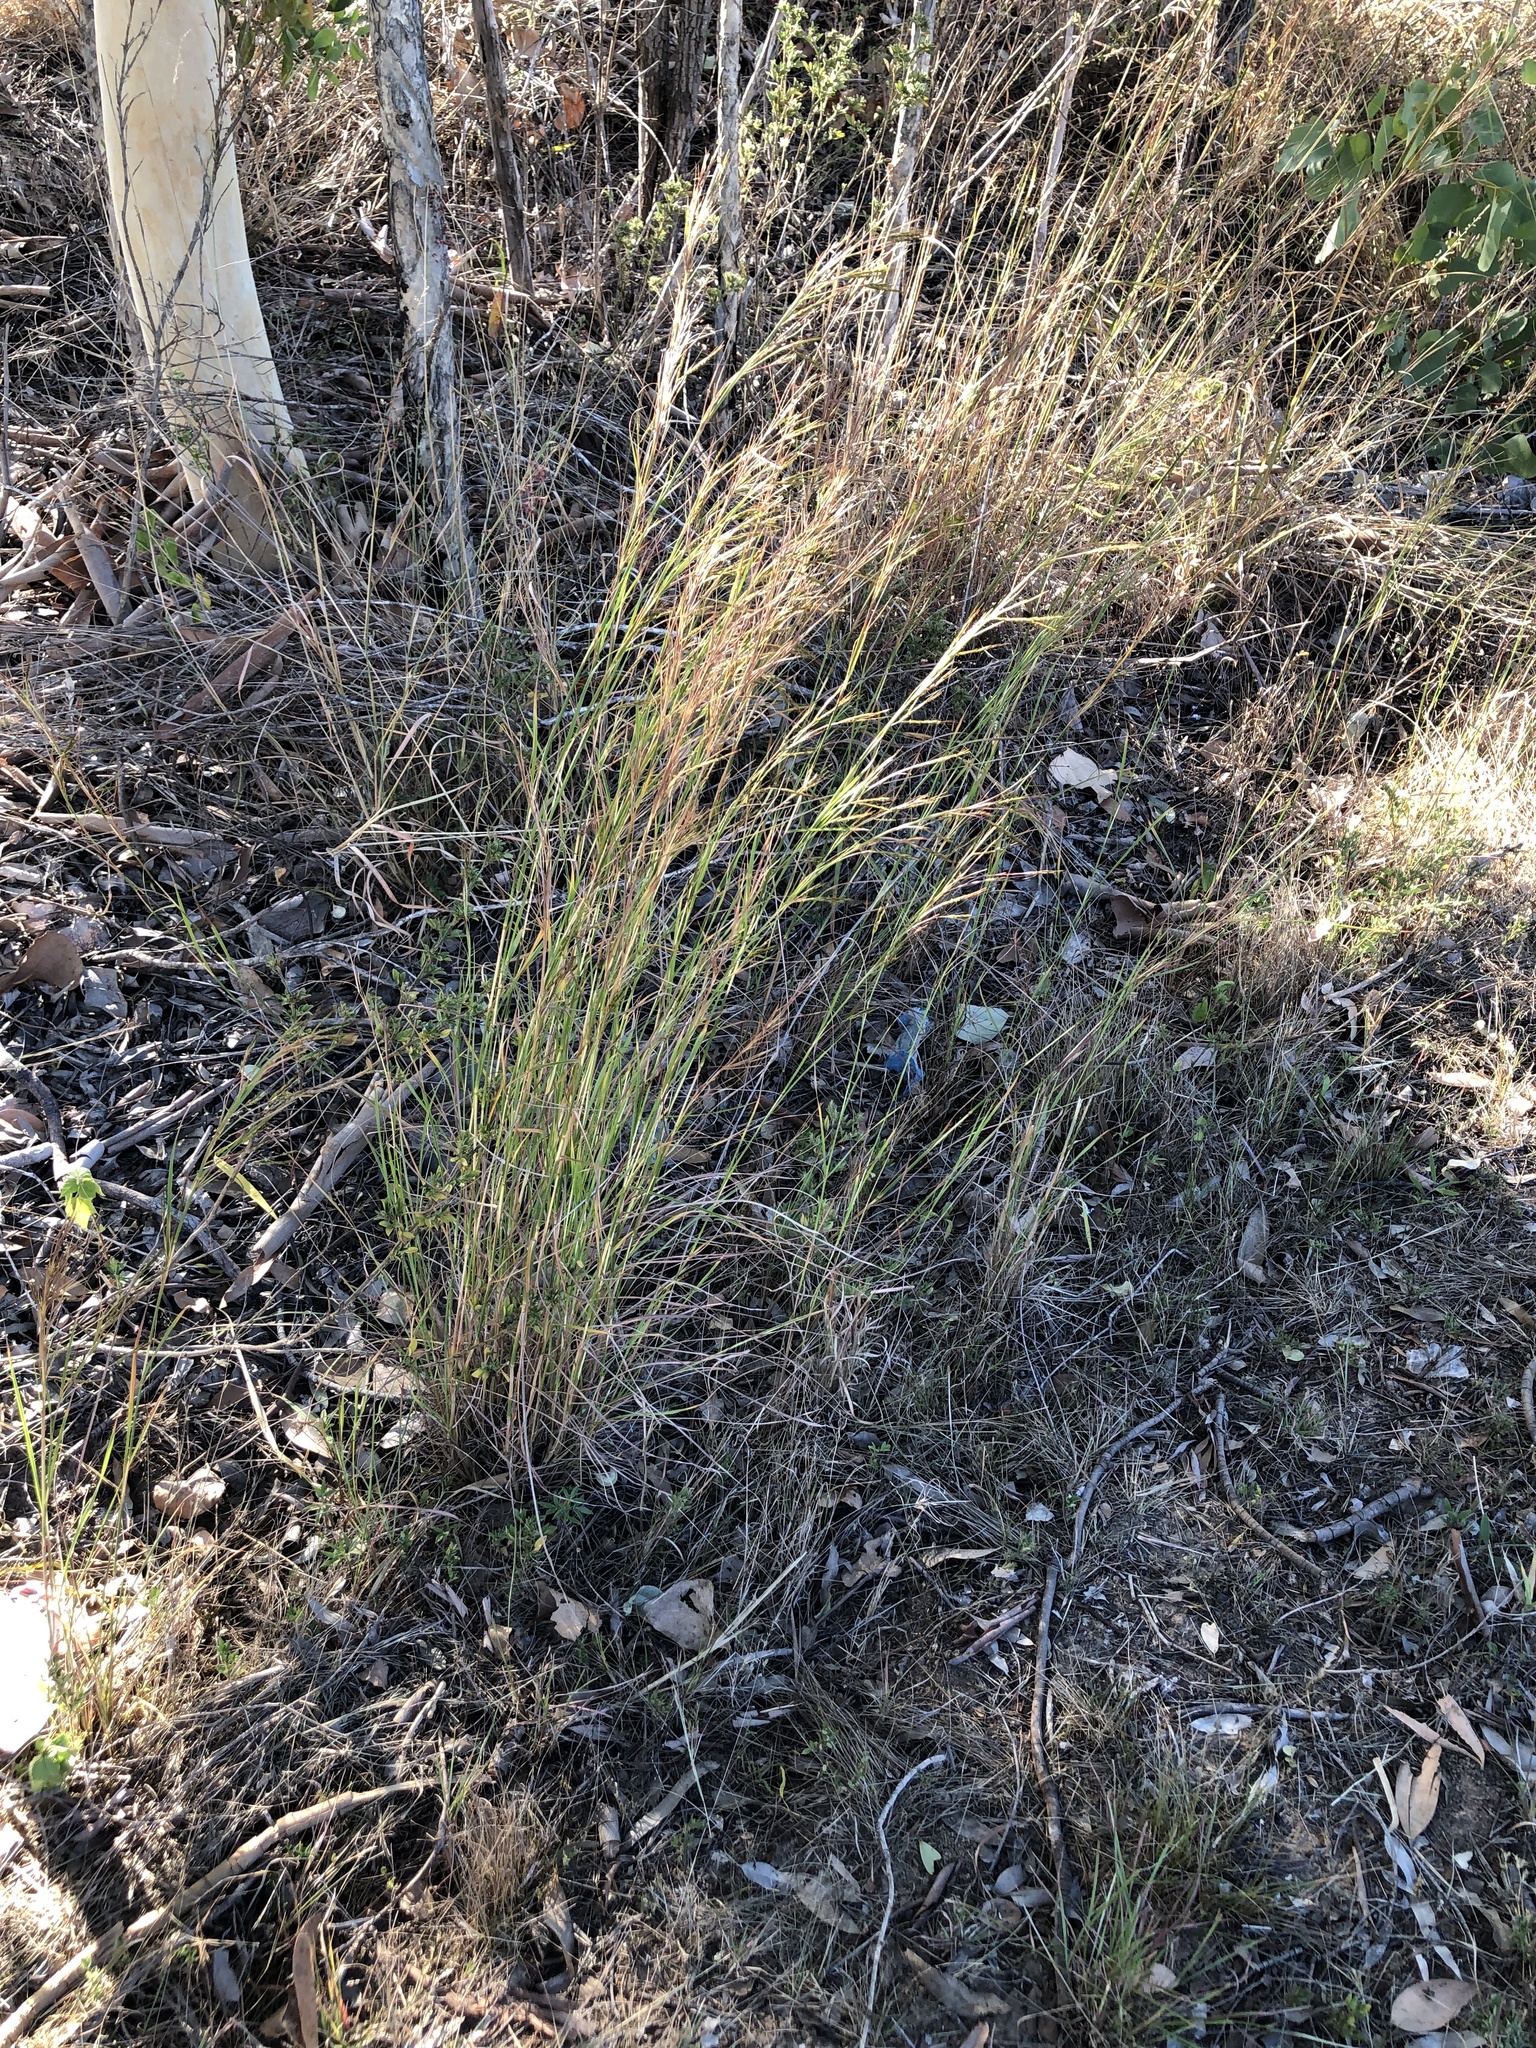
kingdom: Plantae
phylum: Tracheophyta
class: Liliopsida
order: Poales
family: Poaceae
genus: Hyparrhenia
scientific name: Hyparrhenia hirta
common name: Thatching grass
